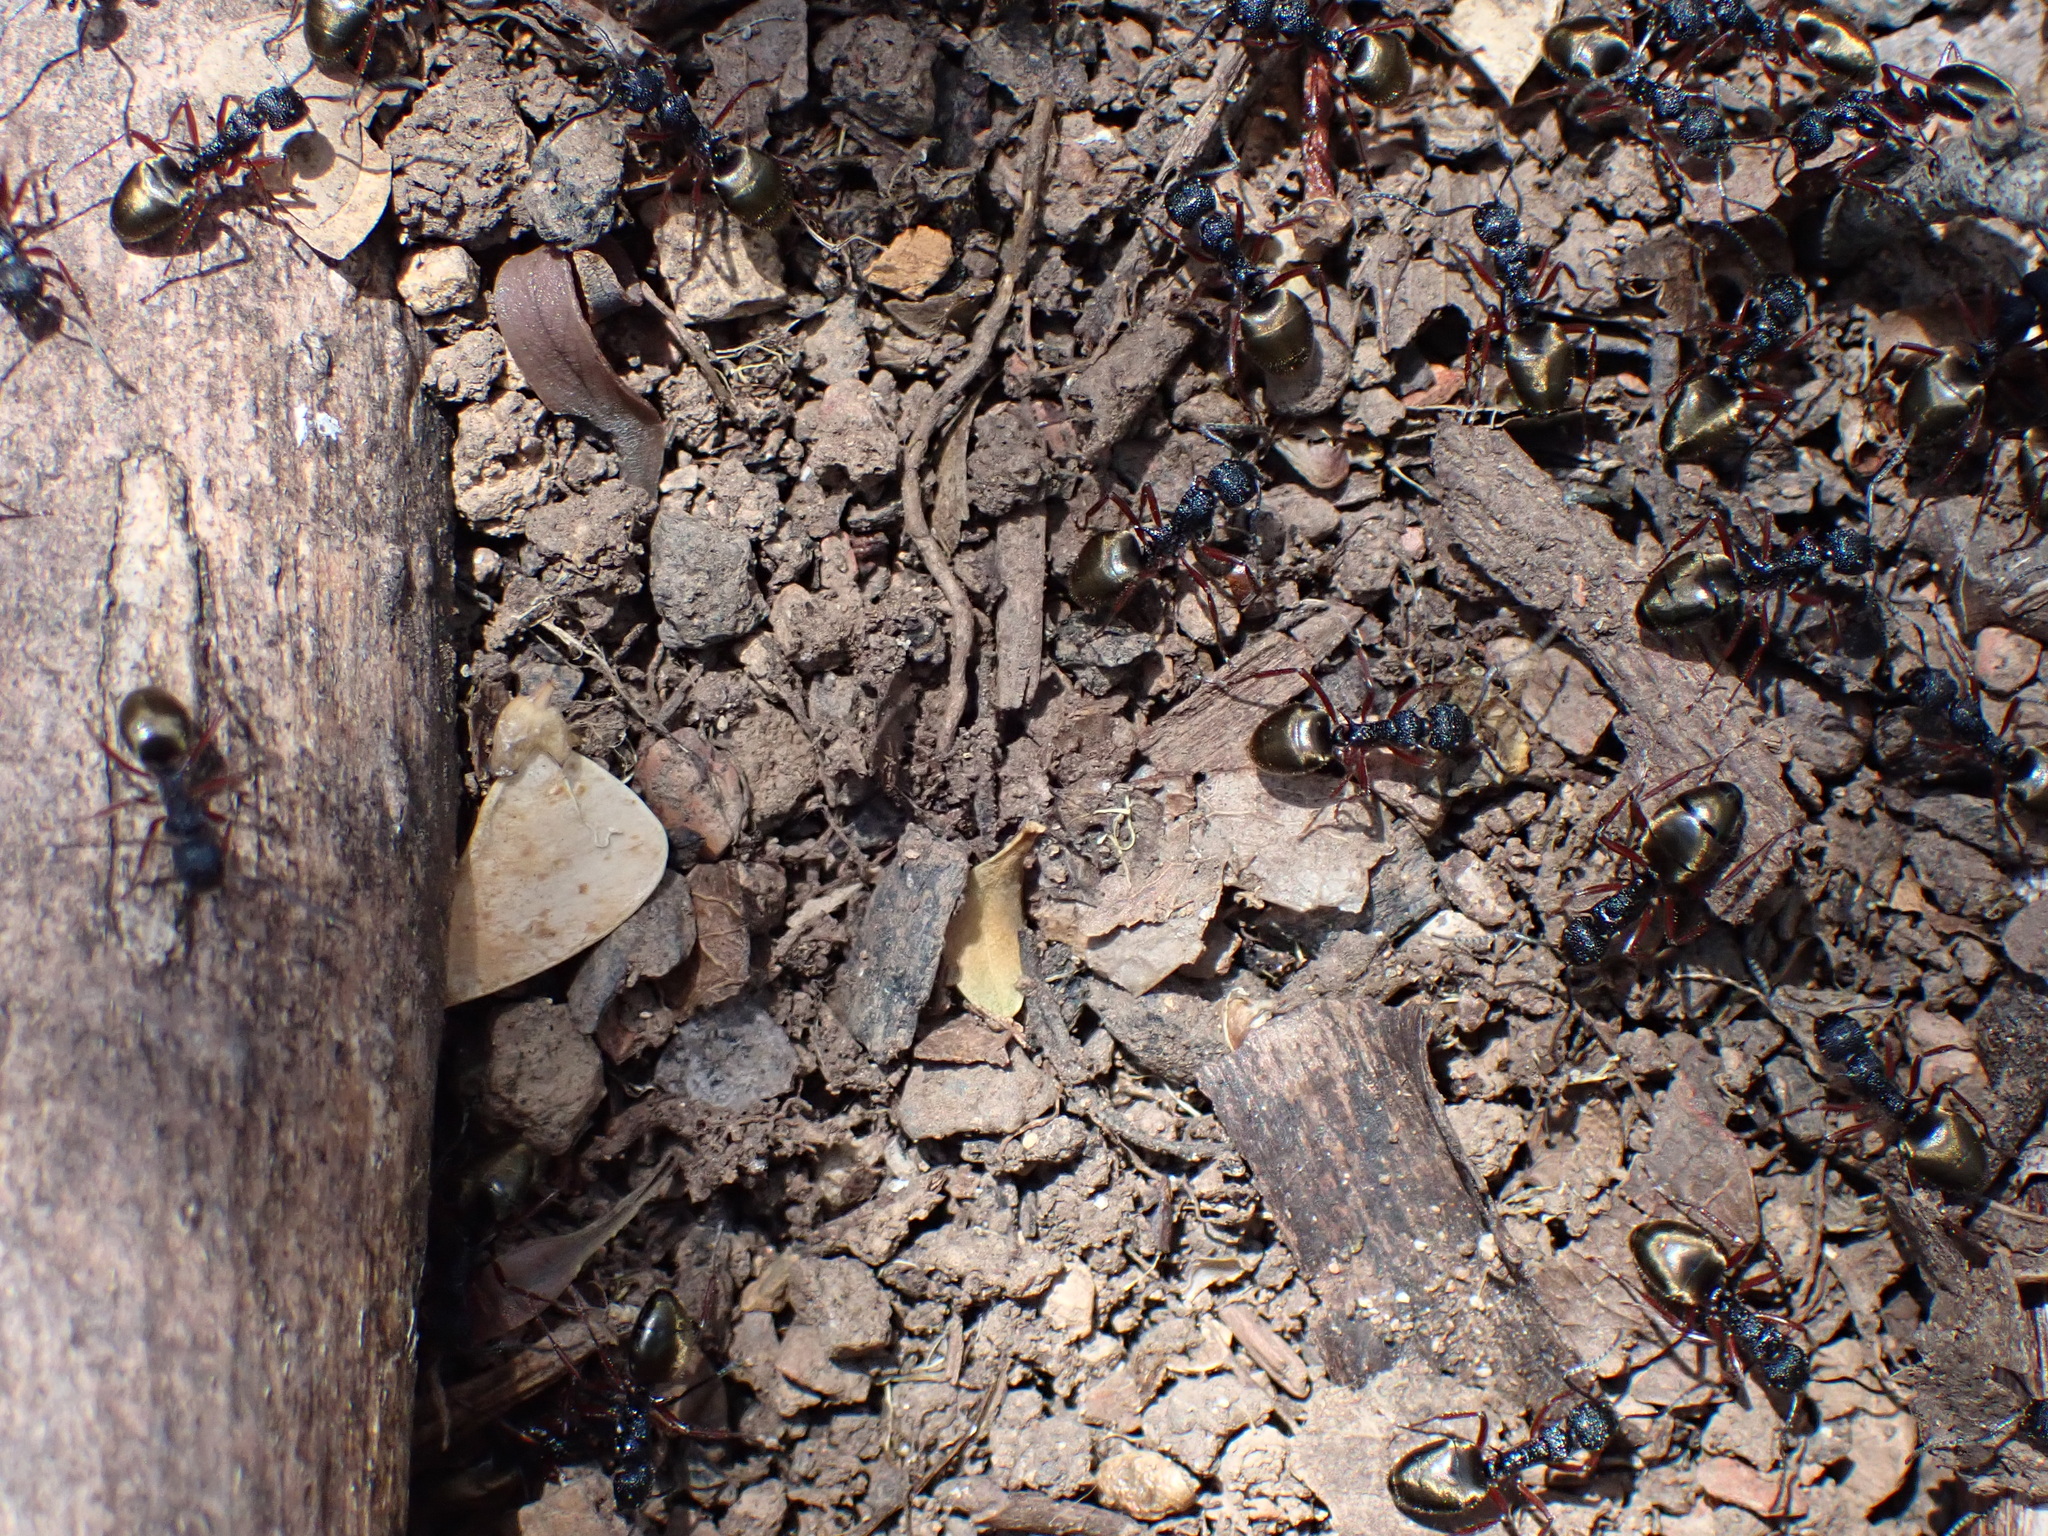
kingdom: Animalia
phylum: Arthropoda
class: Insecta
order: Hymenoptera
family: Formicidae
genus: Dolichoderus
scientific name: Dolichoderus doriae
